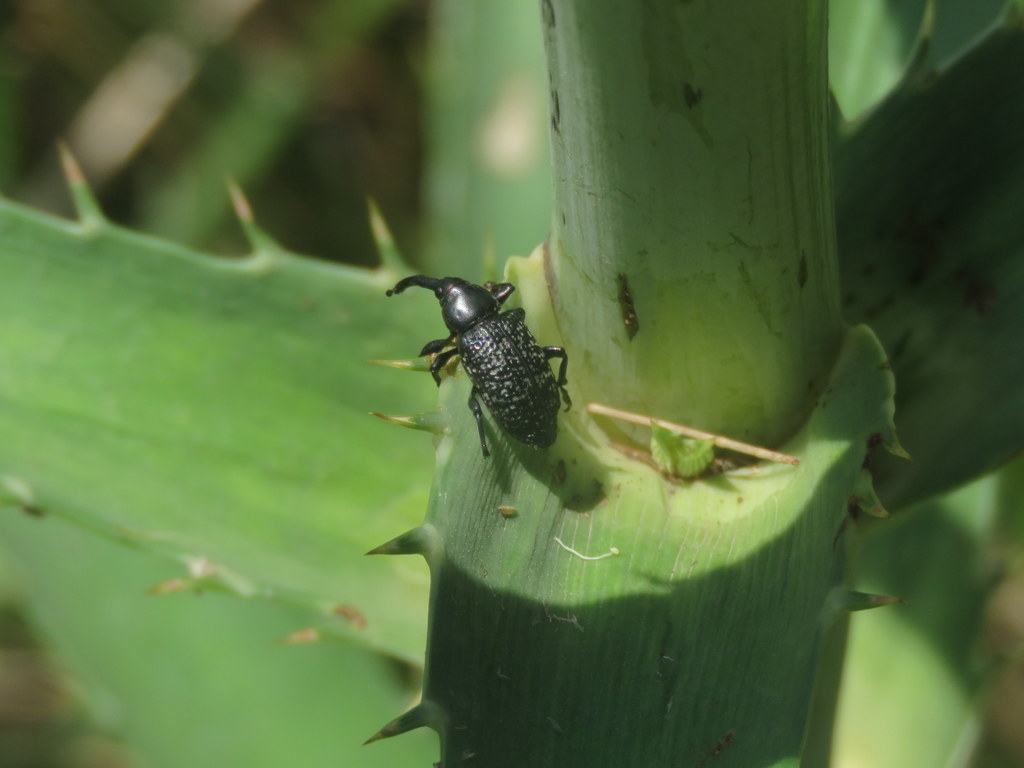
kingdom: Animalia
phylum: Arthropoda
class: Insecta
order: Coleoptera
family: Curculionidae
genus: Heilipodus
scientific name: Heilipodus scabripennis
